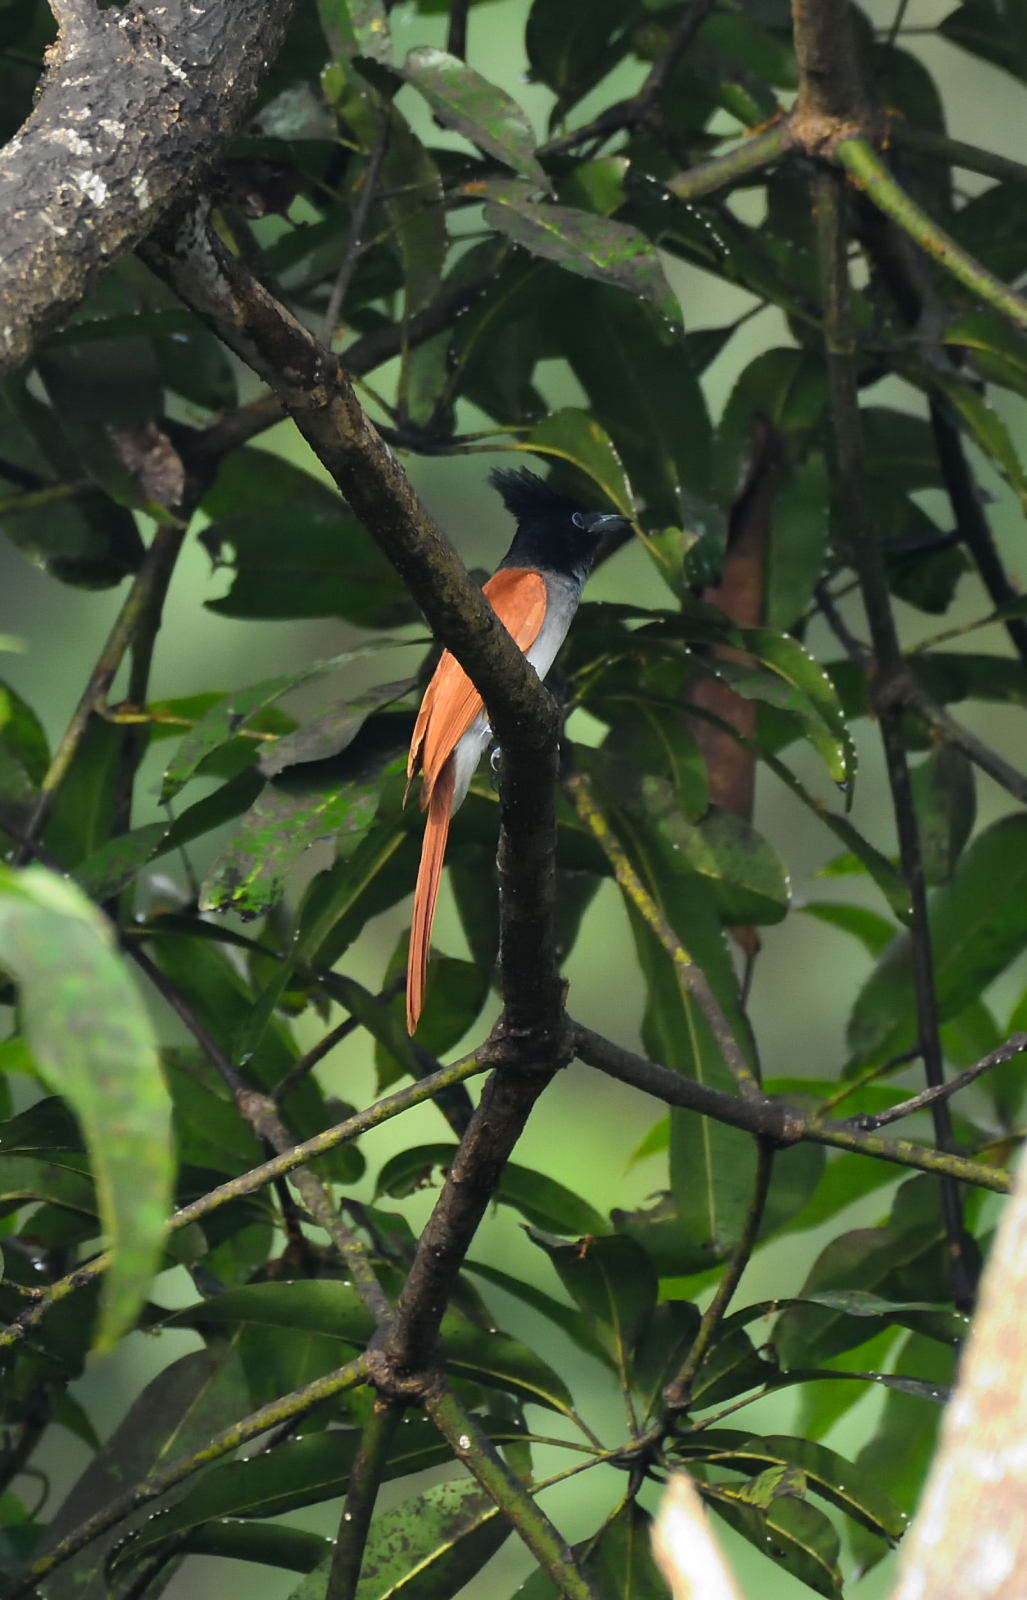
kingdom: Animalia
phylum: Chordata
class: Aves
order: Passeriformes
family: Monarchidae
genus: Terpsiphone
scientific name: Terpsiphone paradisi
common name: Indian paradise flycatcher
